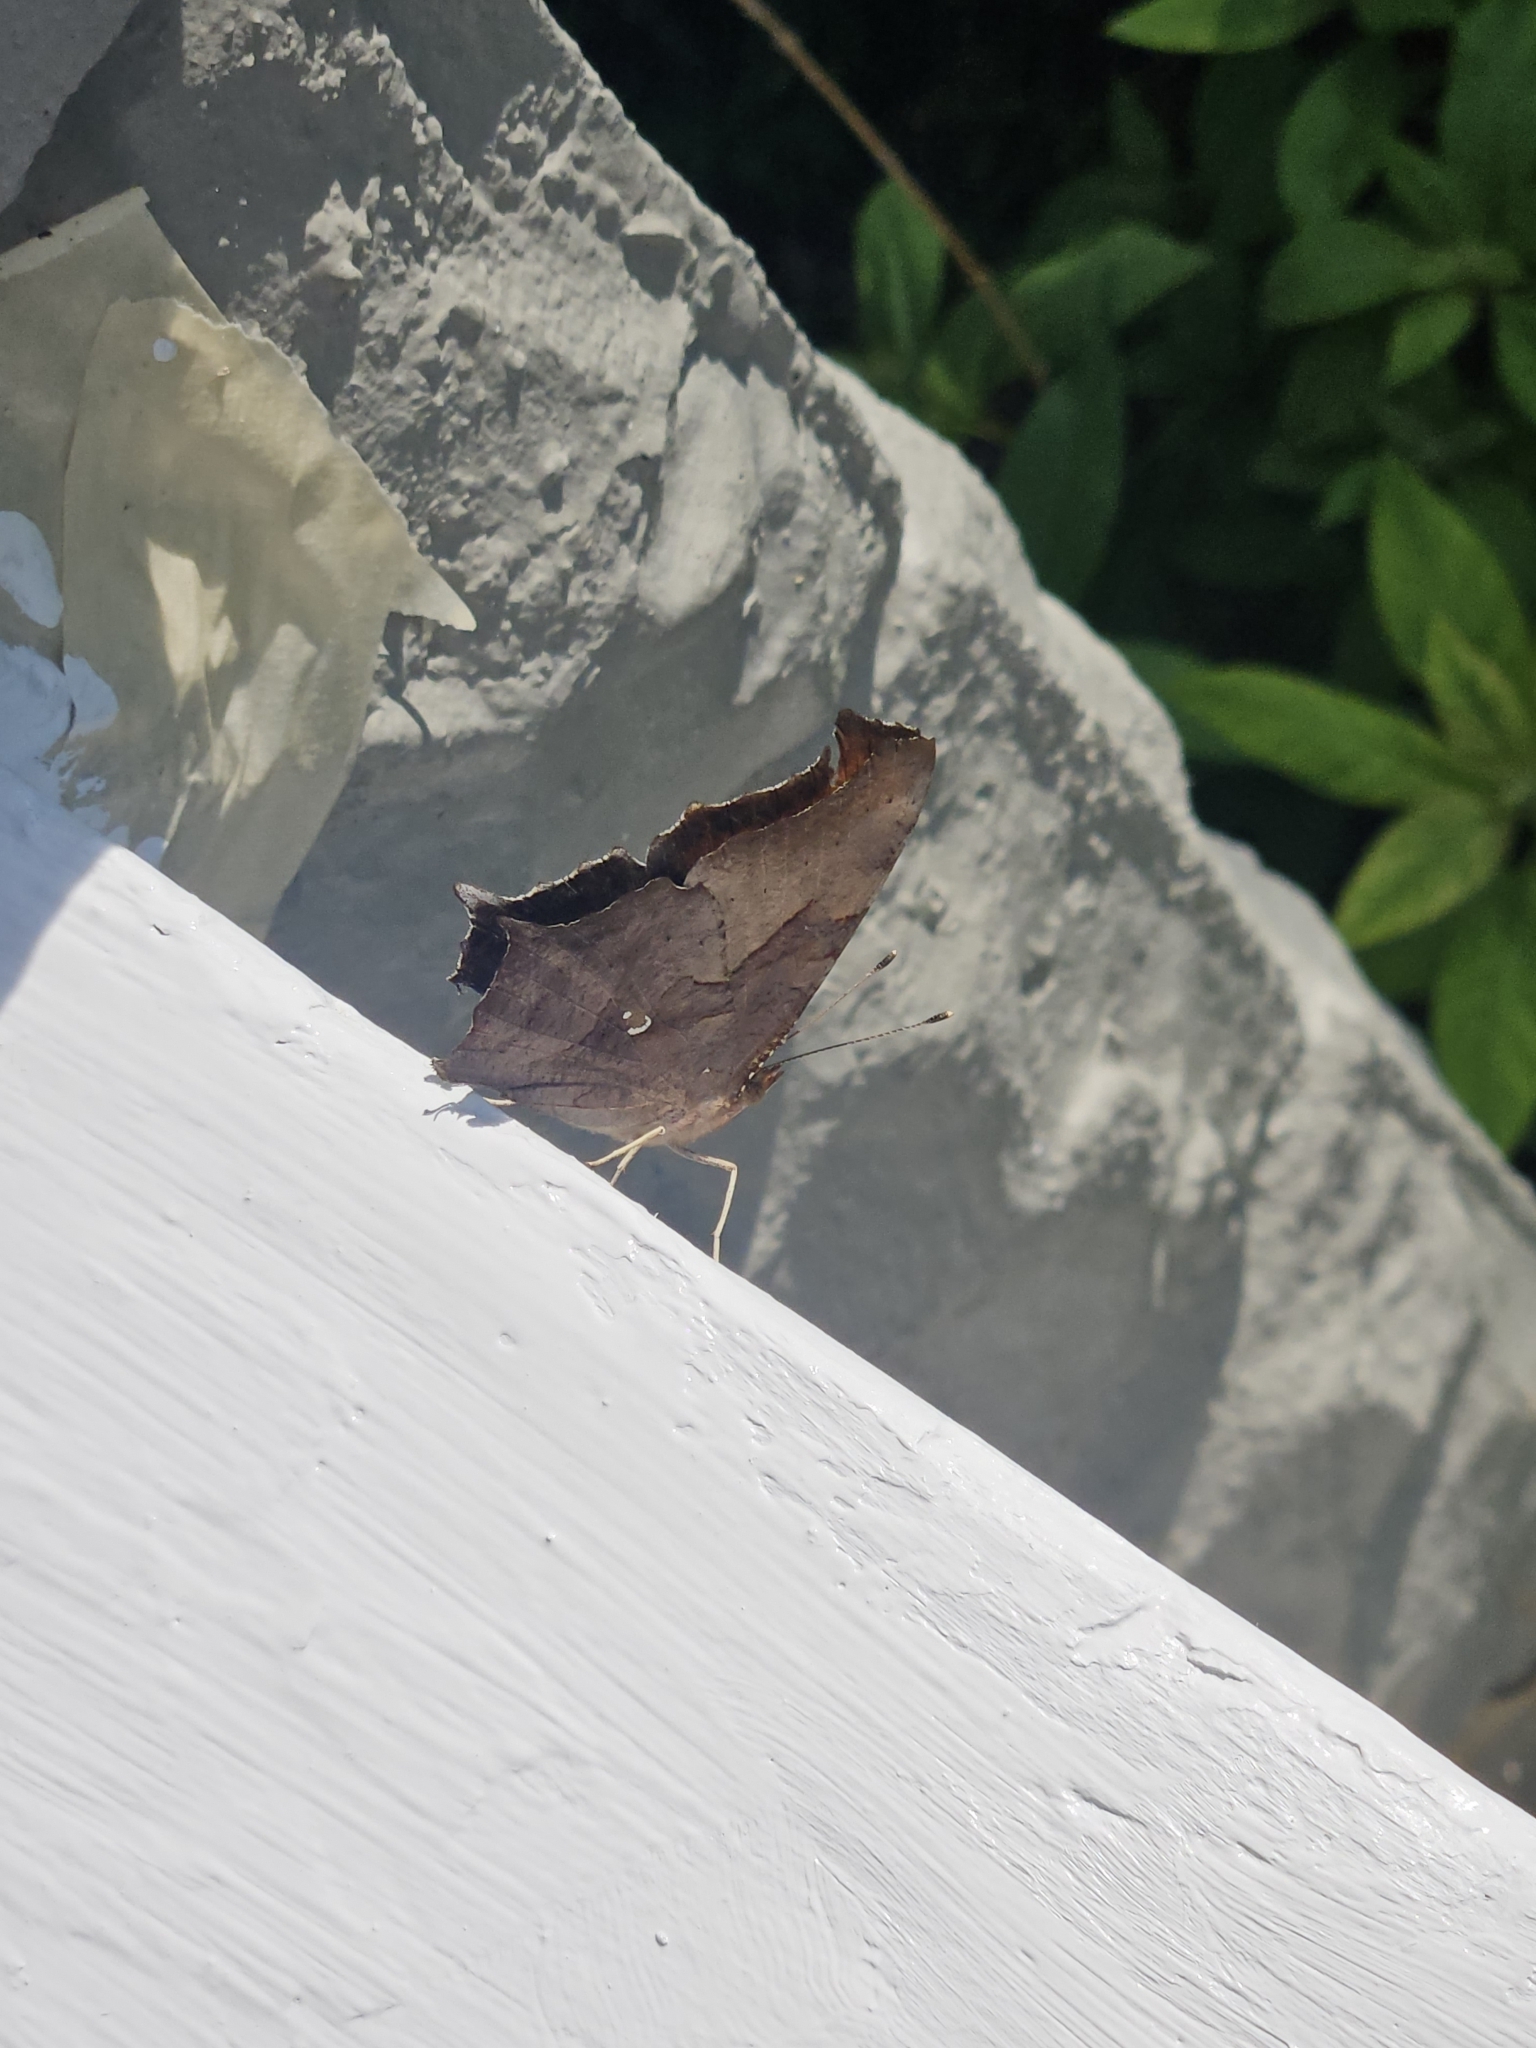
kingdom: Animalia
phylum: Arthropoda
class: Insecta
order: Lepidoptera
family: Nymphalidae
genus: Polygonia
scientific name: Polygonia interrogationis
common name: Question mark
